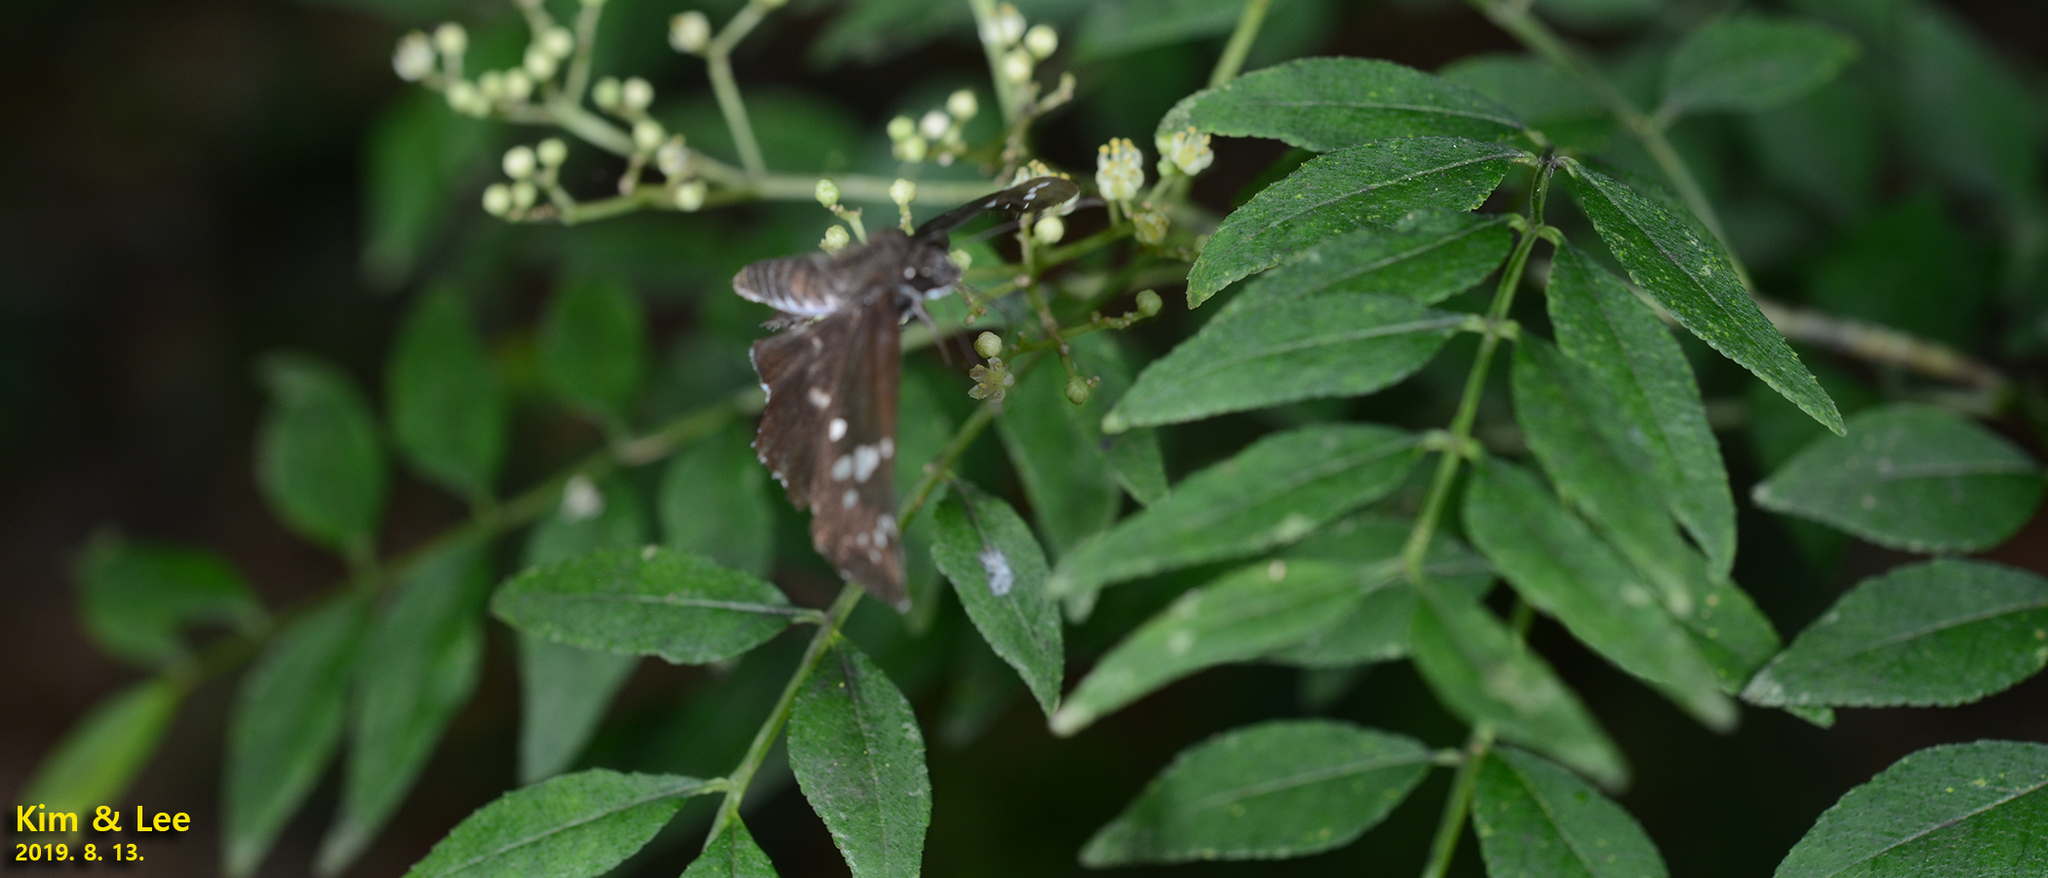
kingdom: Animalia
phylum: Arthropoda
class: Insecta
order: Lepidoptera
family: Hesperiidae
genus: Daimio
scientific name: Daimio tethys
